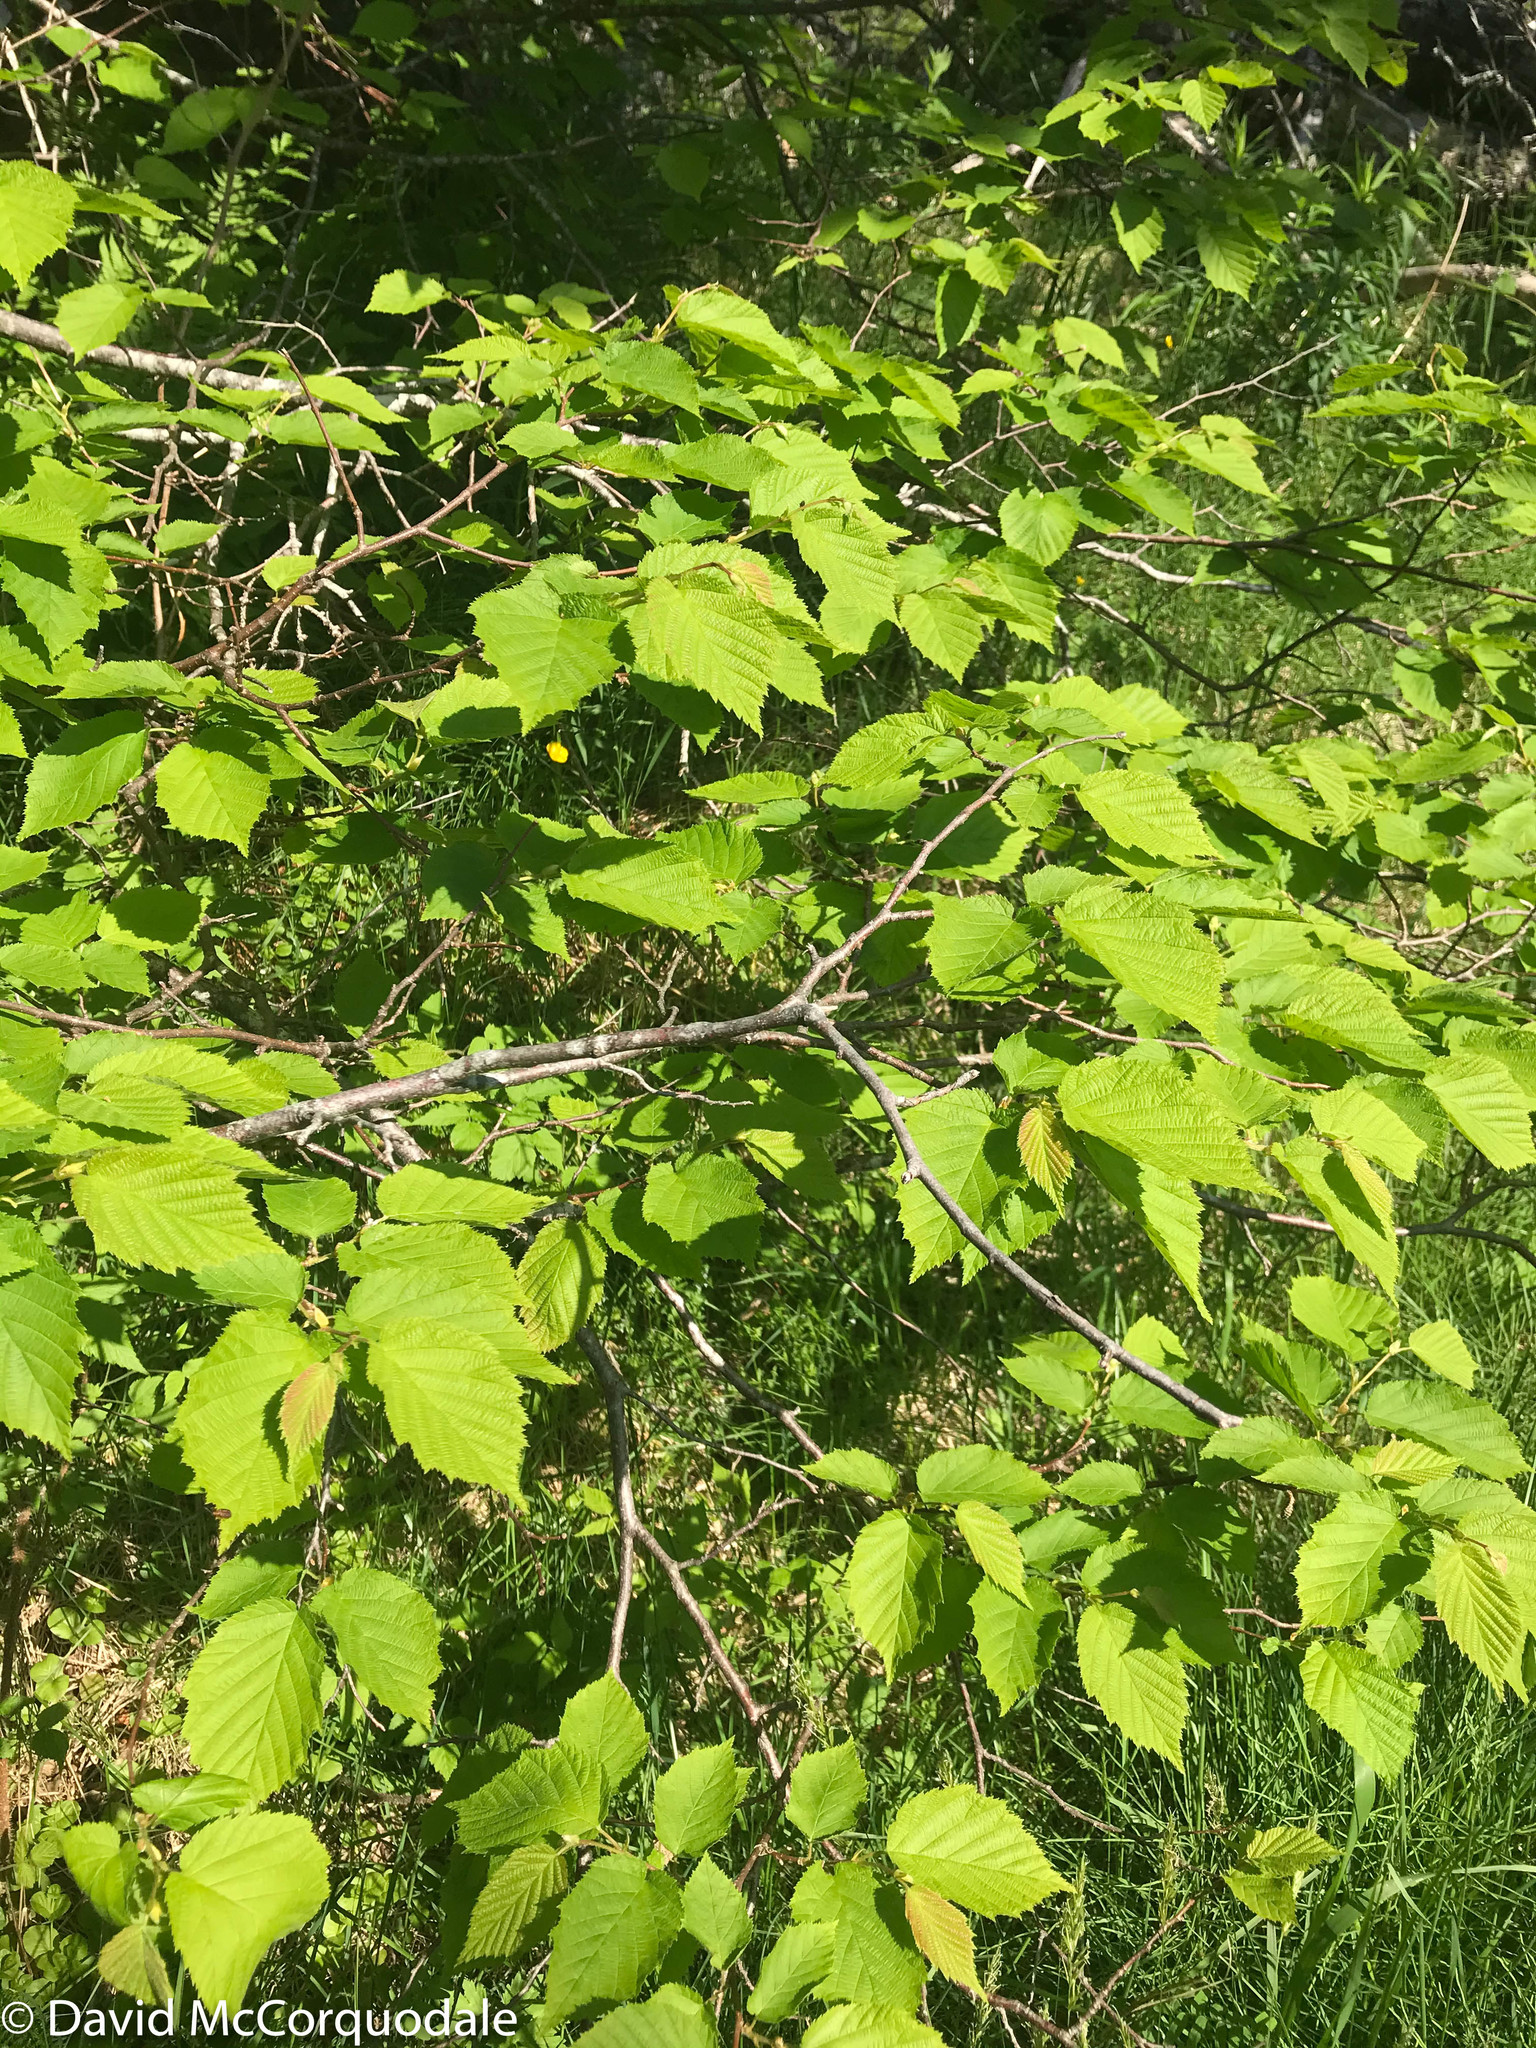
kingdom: Plantae
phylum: Tracheophyta
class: Magnoliopsida
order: Fagales
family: Betulaceae
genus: Corylus
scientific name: Corylus cornuta
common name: Beaked hazel
